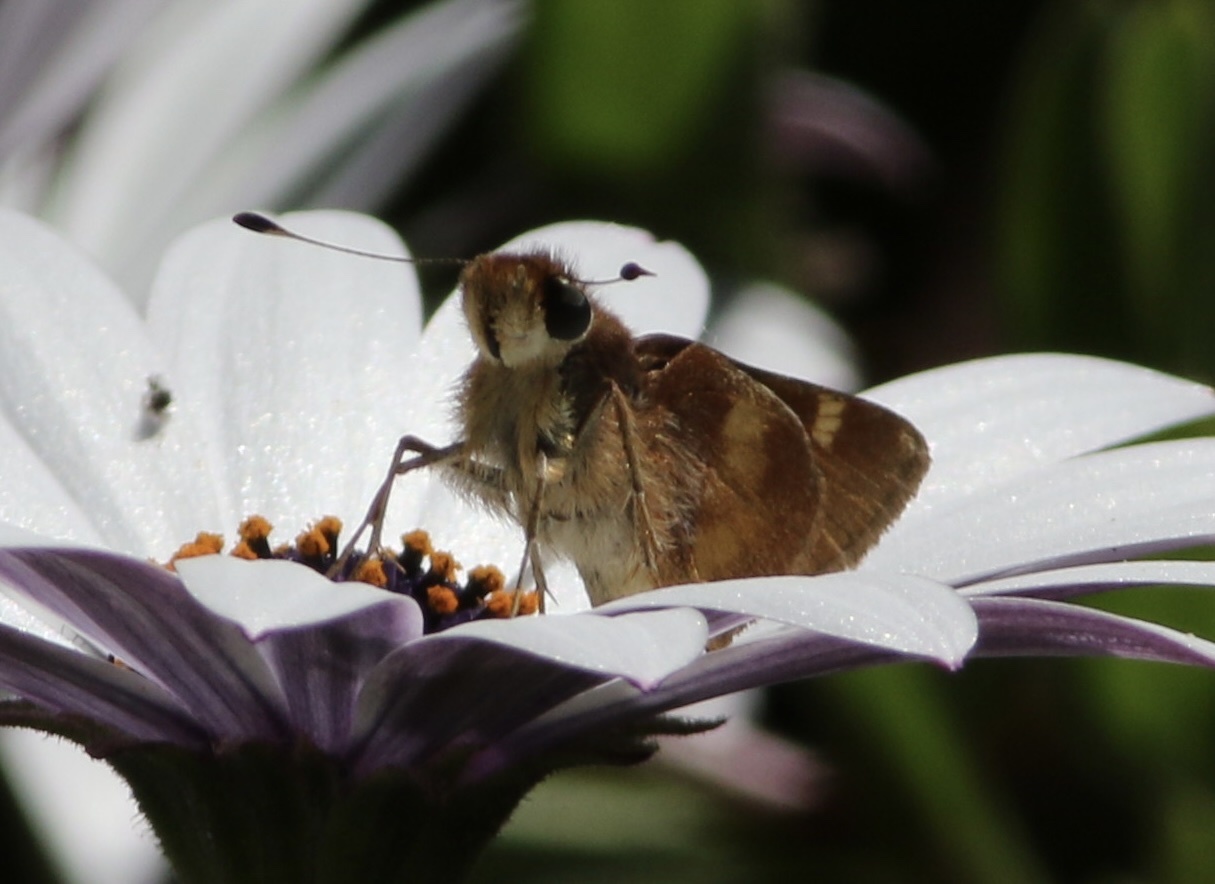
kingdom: Animalia
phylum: Arthropoda
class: Insecta
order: Lepidoptera
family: Hesperiidae
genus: Lon
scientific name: Lon melane
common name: Umber skipper
